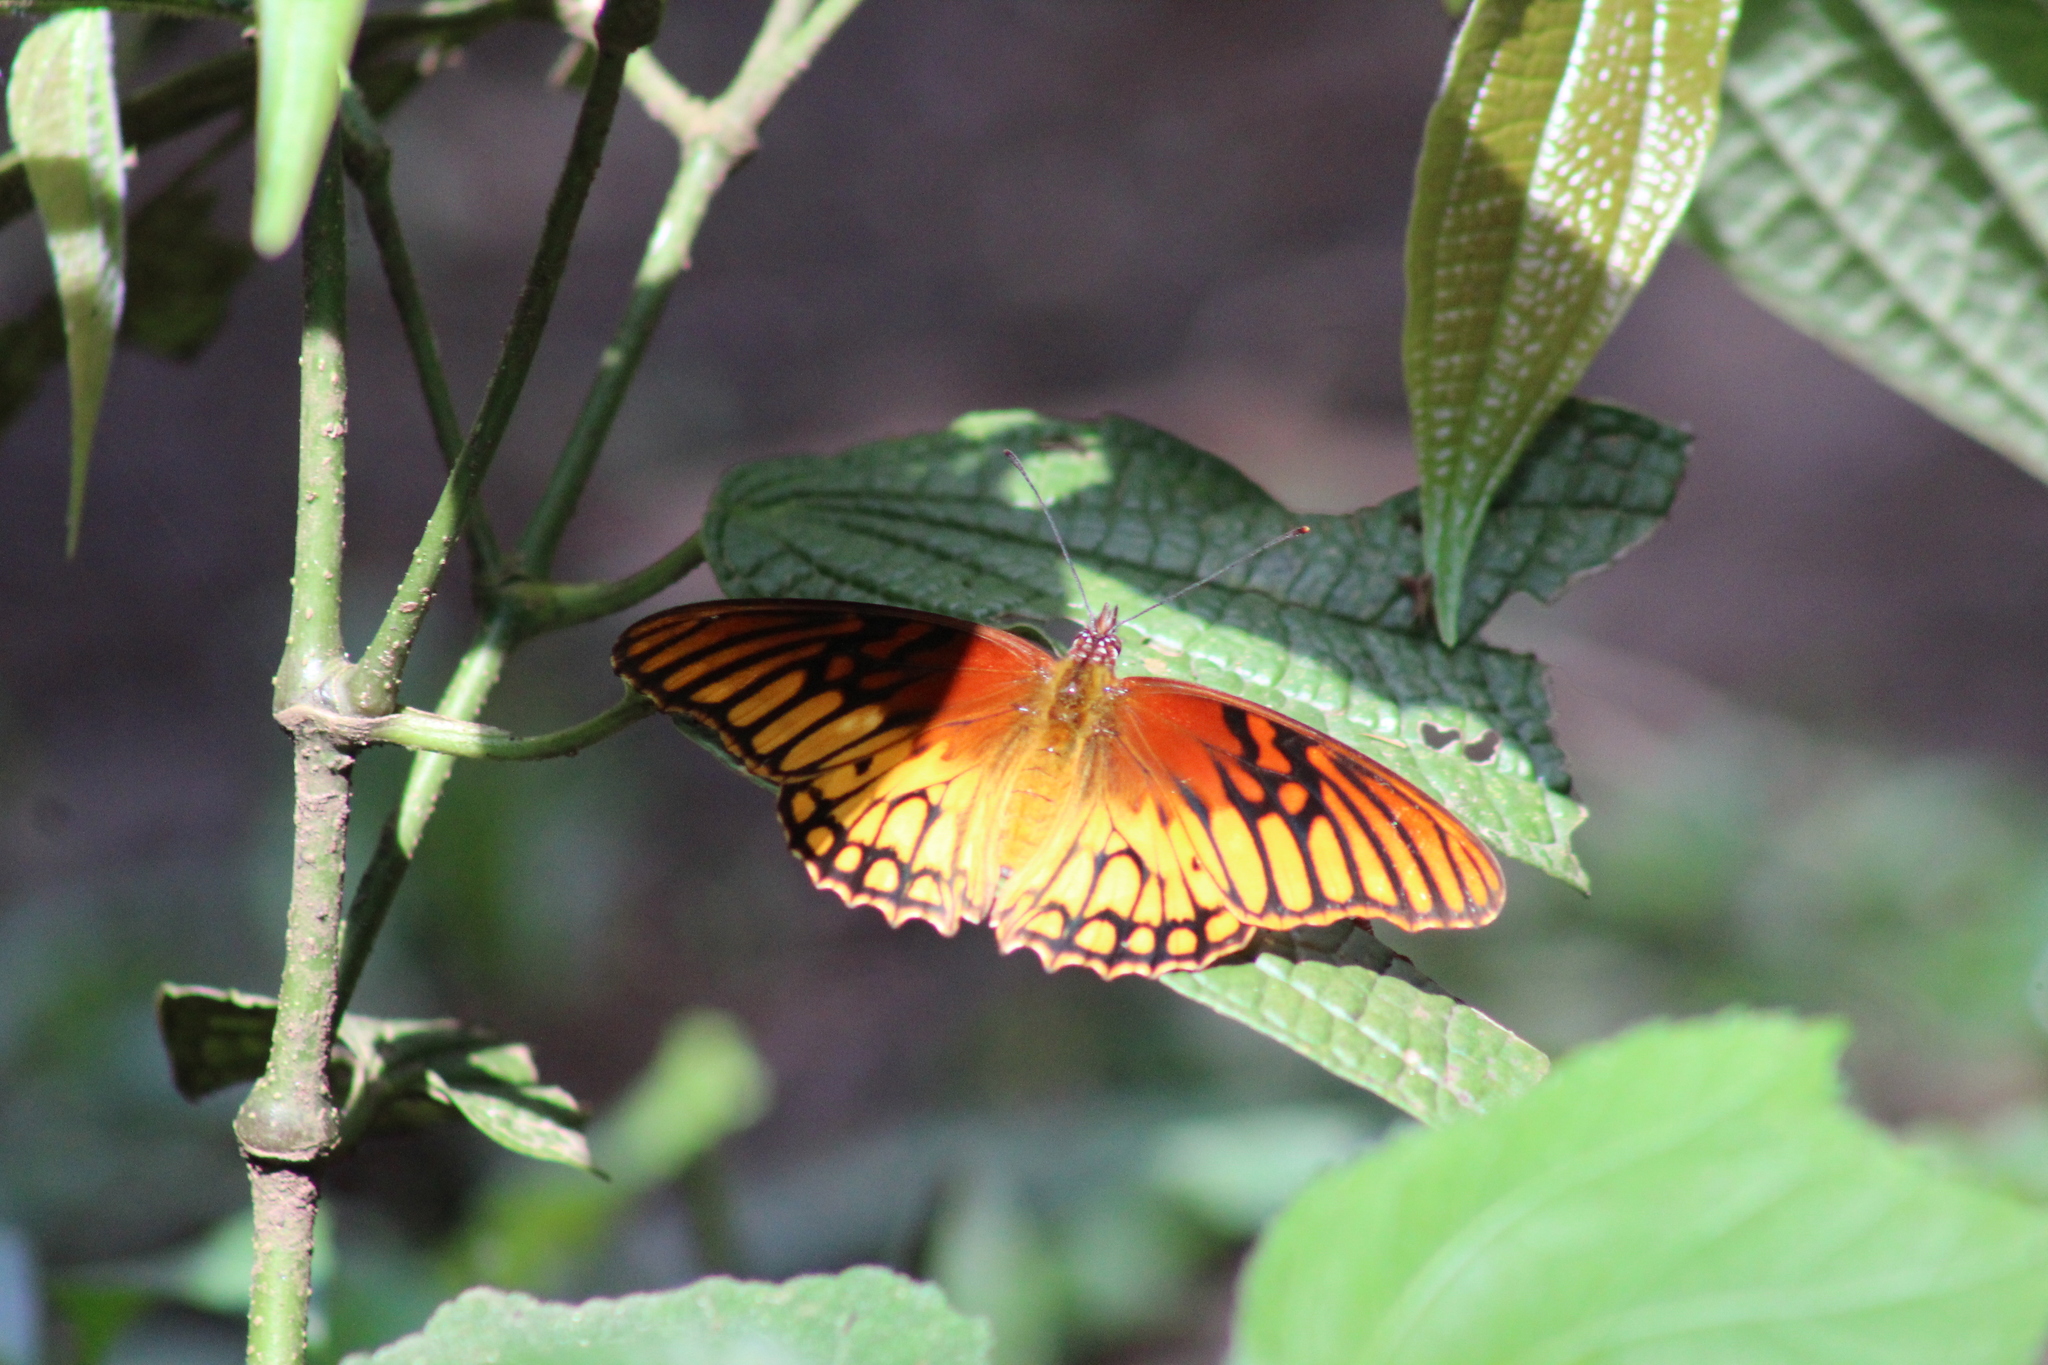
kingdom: Animalia
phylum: Arthropoda
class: Insecta
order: Lepidoptera
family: Nymphalidae
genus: Dione
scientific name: Dione moneta
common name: Mexican silverspot
